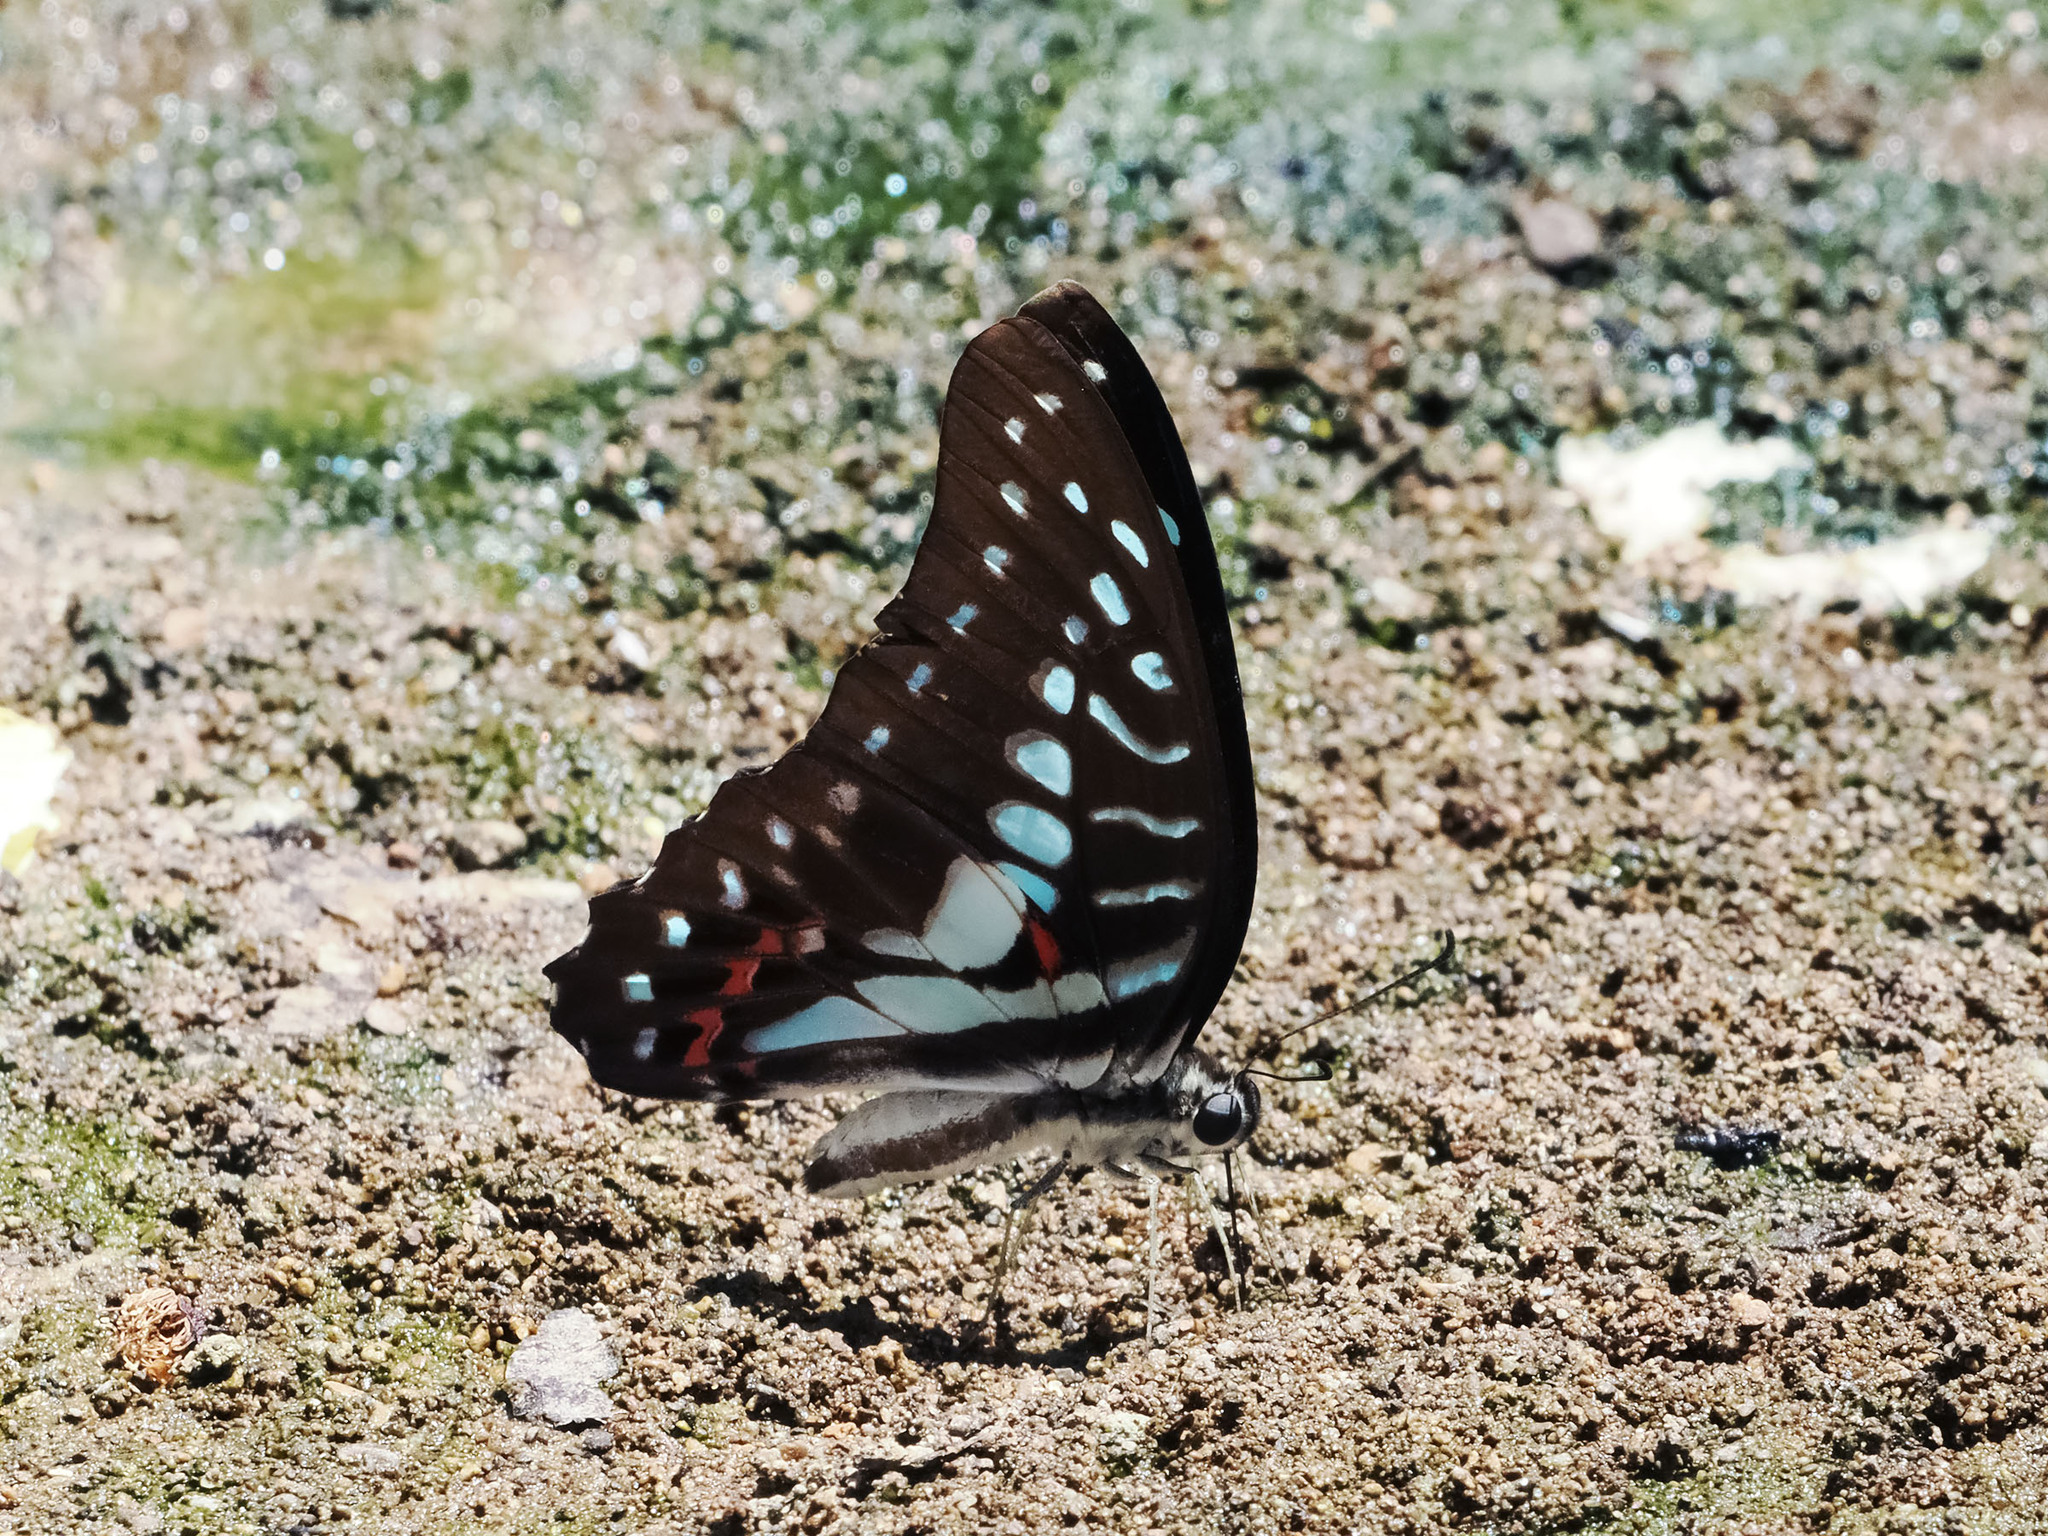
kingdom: Animalia
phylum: Arthropoda
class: Insecta
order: Lepidoptera
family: Papilionidae
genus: Graphium
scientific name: Graphium meyeri
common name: Meyer's triangle
